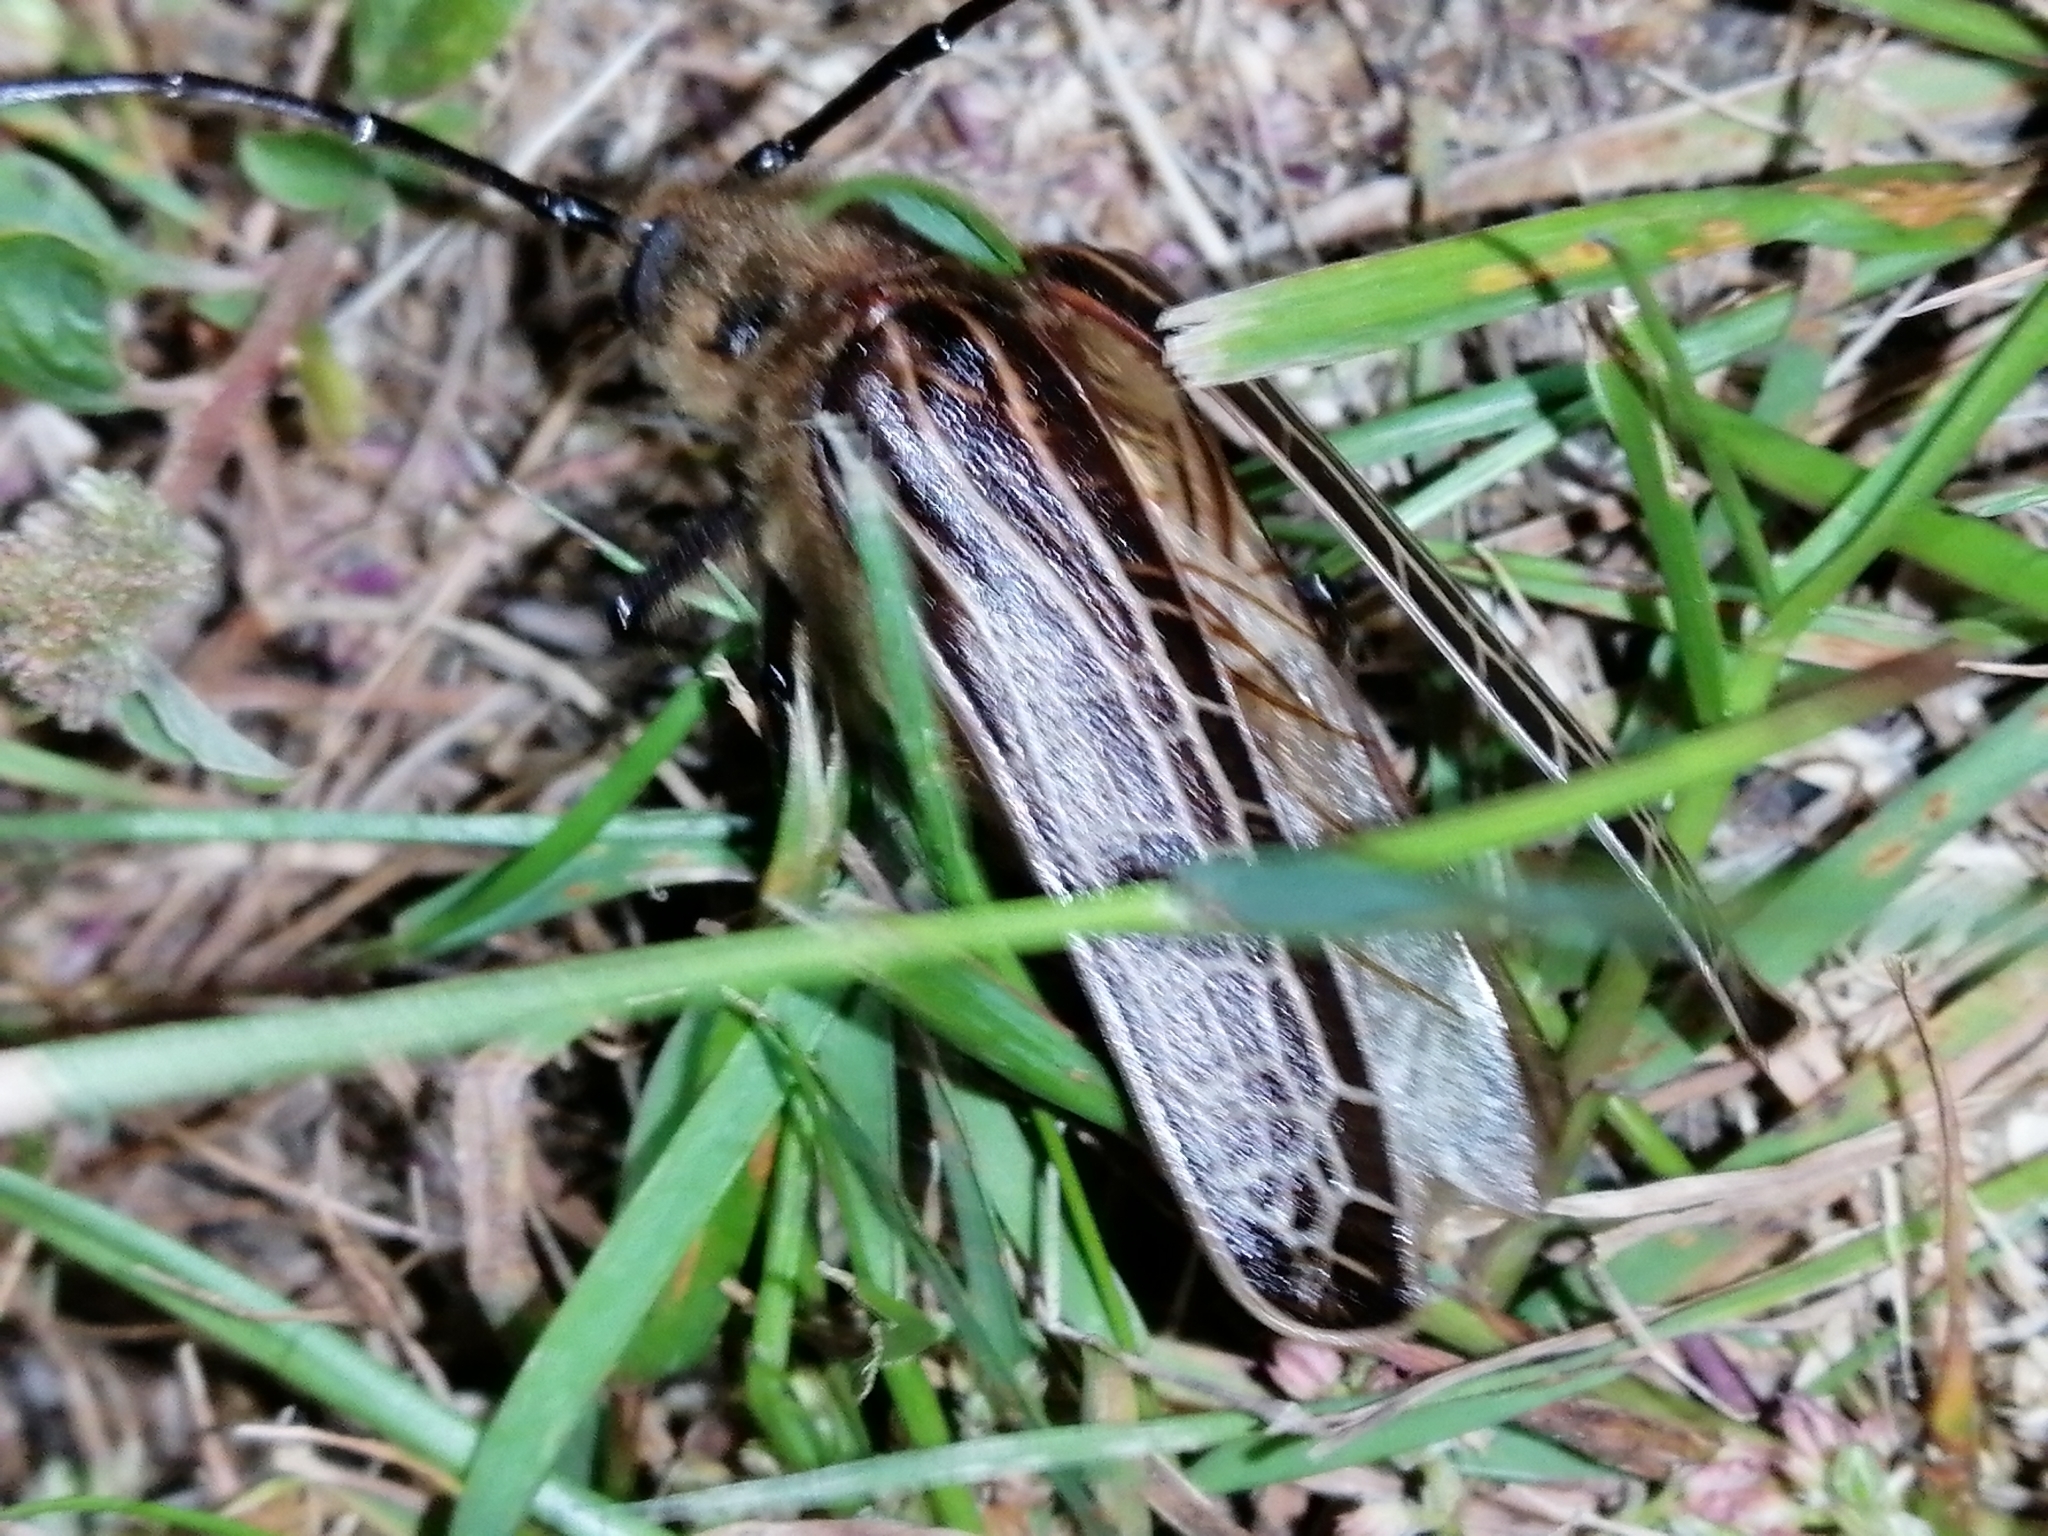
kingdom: Animalia
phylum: Arthropoda
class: Insecta
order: Coleoptera
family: Cerambycidae
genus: Prionoplus
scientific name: Prionoplus reticularis
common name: Huhu beetle
